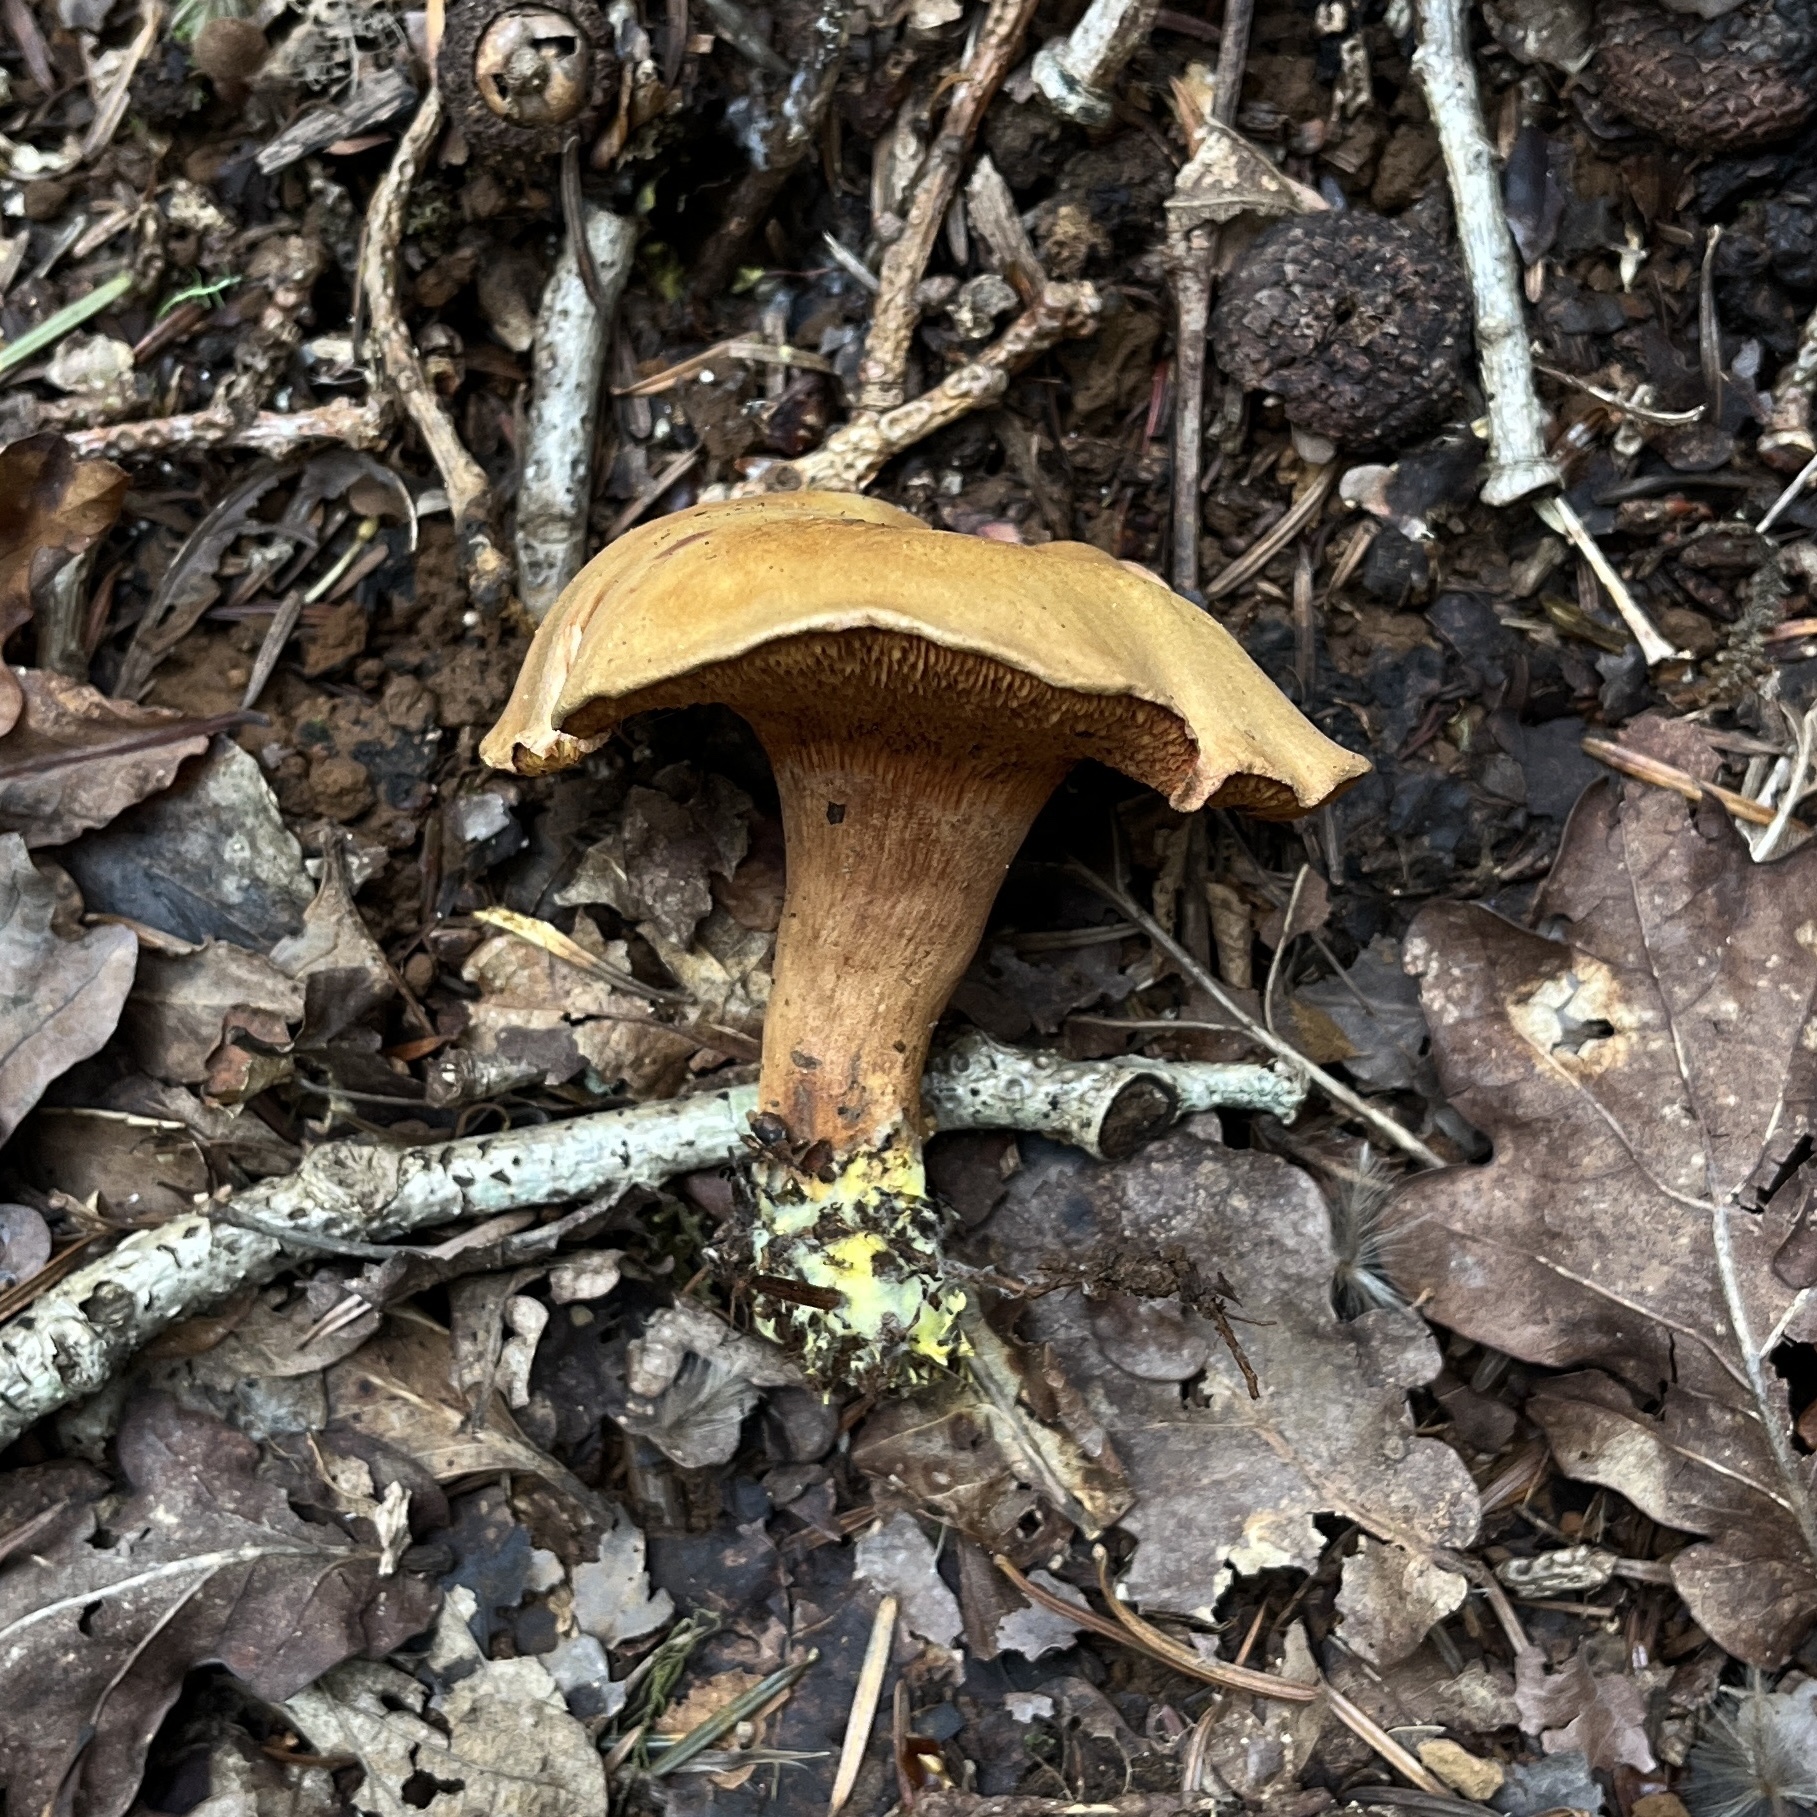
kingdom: Fungi
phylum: Basidiomycota
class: Agaricomycetes
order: Boletales
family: Boletaceae
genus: Chalciporus
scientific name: Chalciporus piperatus
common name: Peppery bolete
